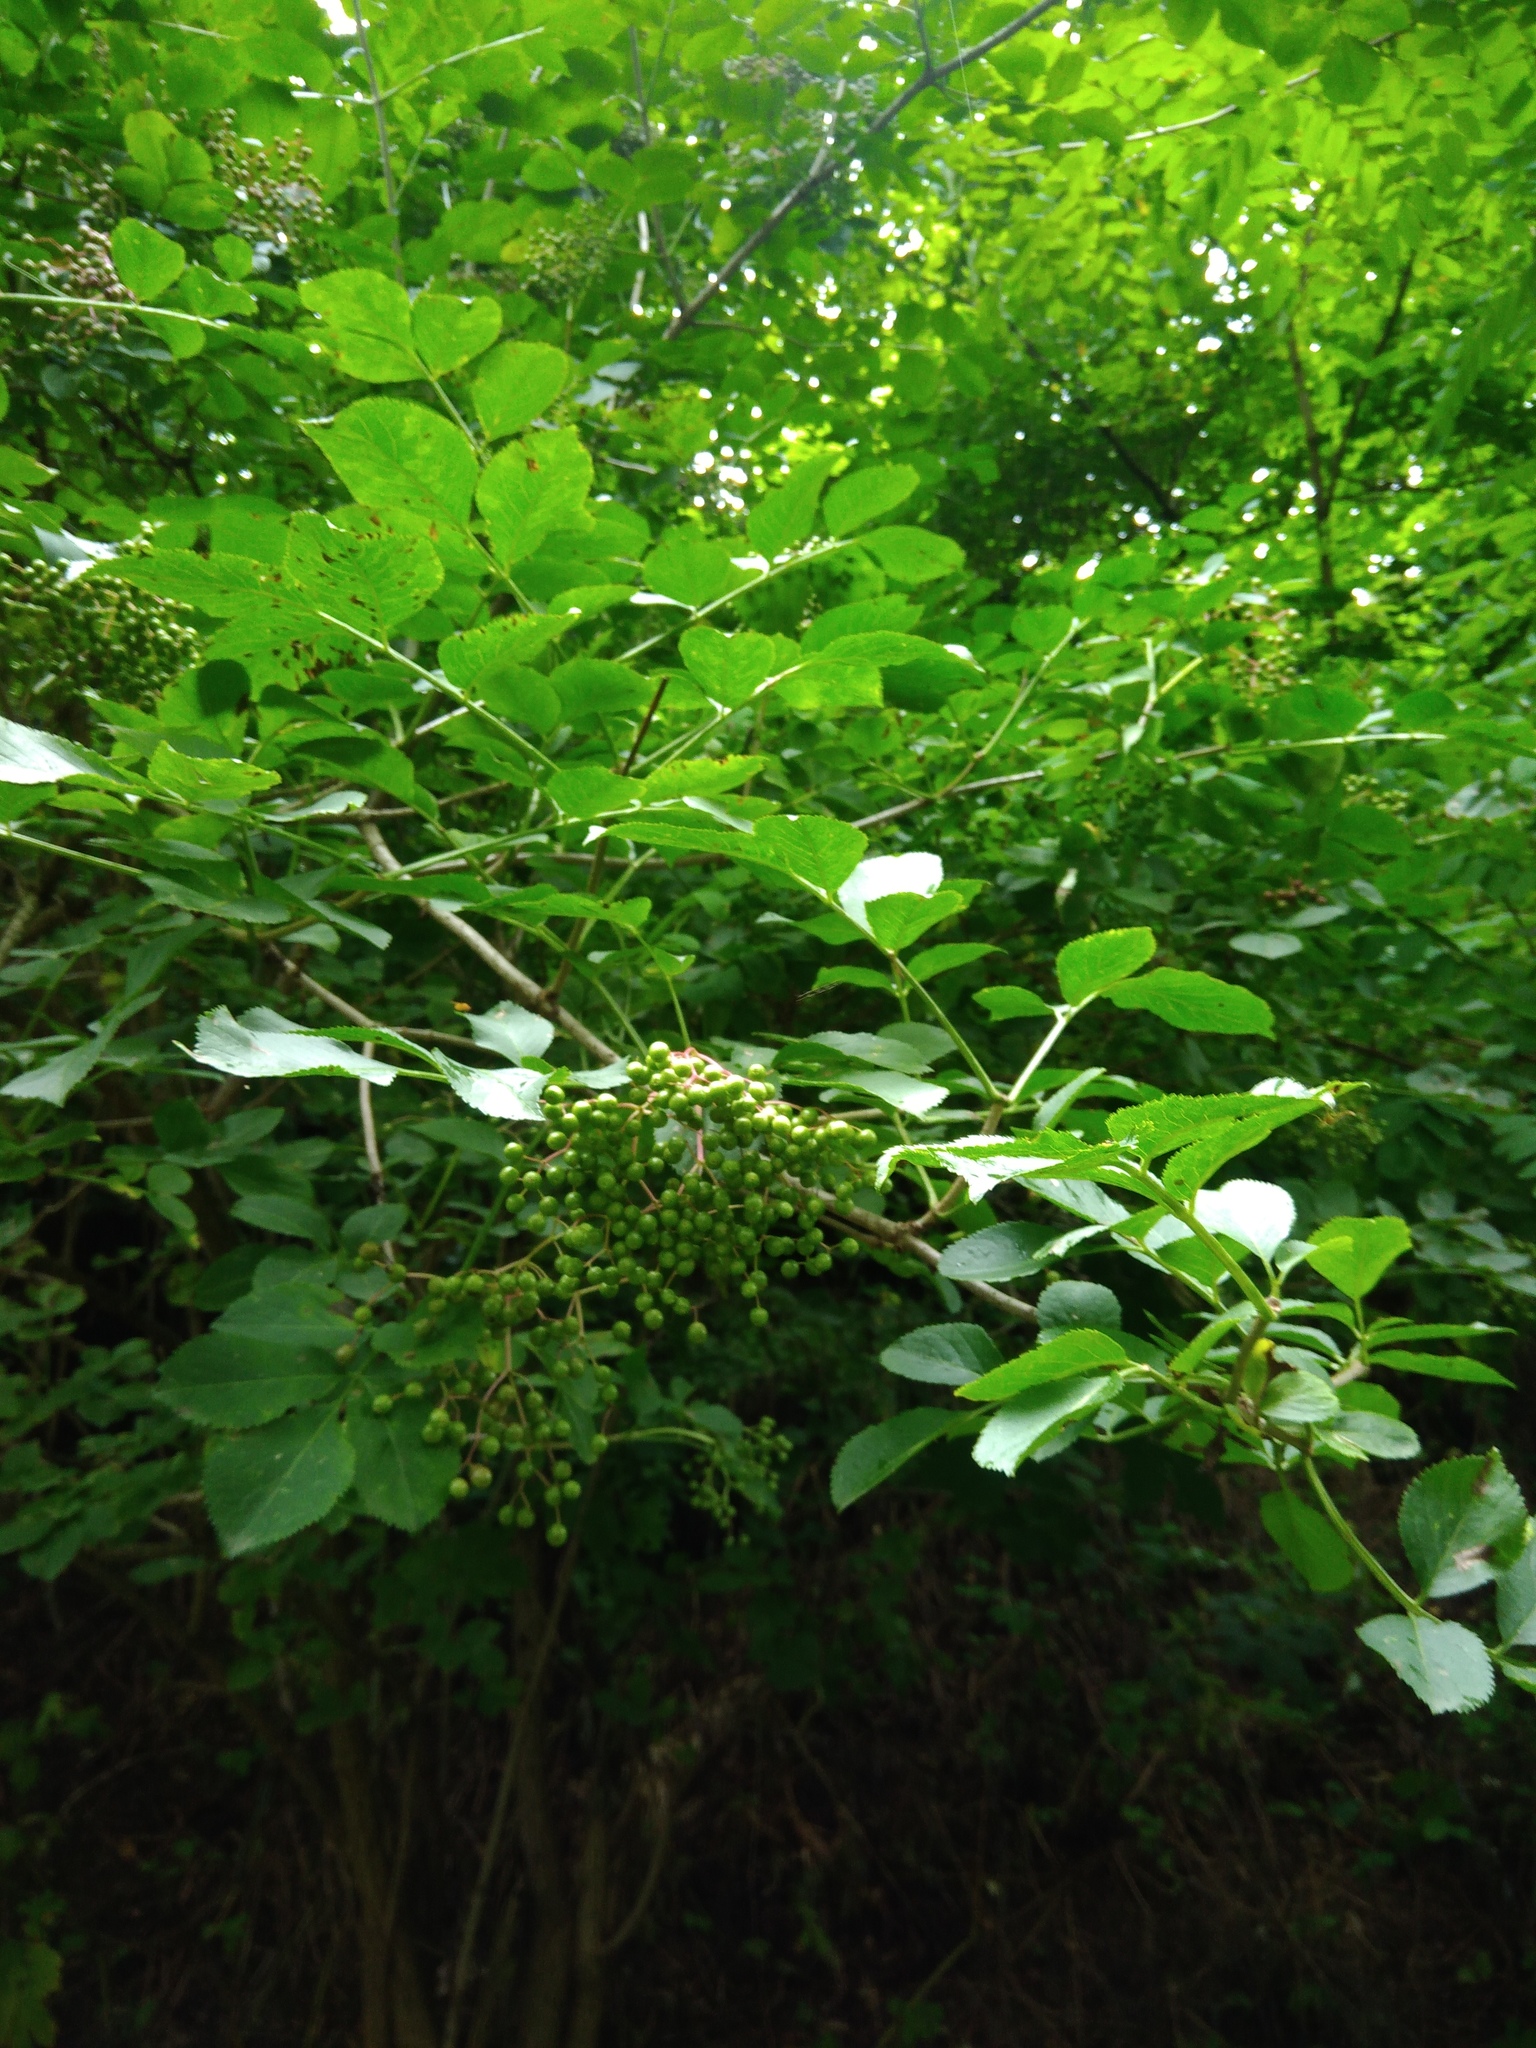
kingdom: Plantae
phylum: Tracheophyta
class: Magnoliopsida
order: Dipsacales
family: Viburnaceae
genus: Sambucus
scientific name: Sambucus nigra
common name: Elder
